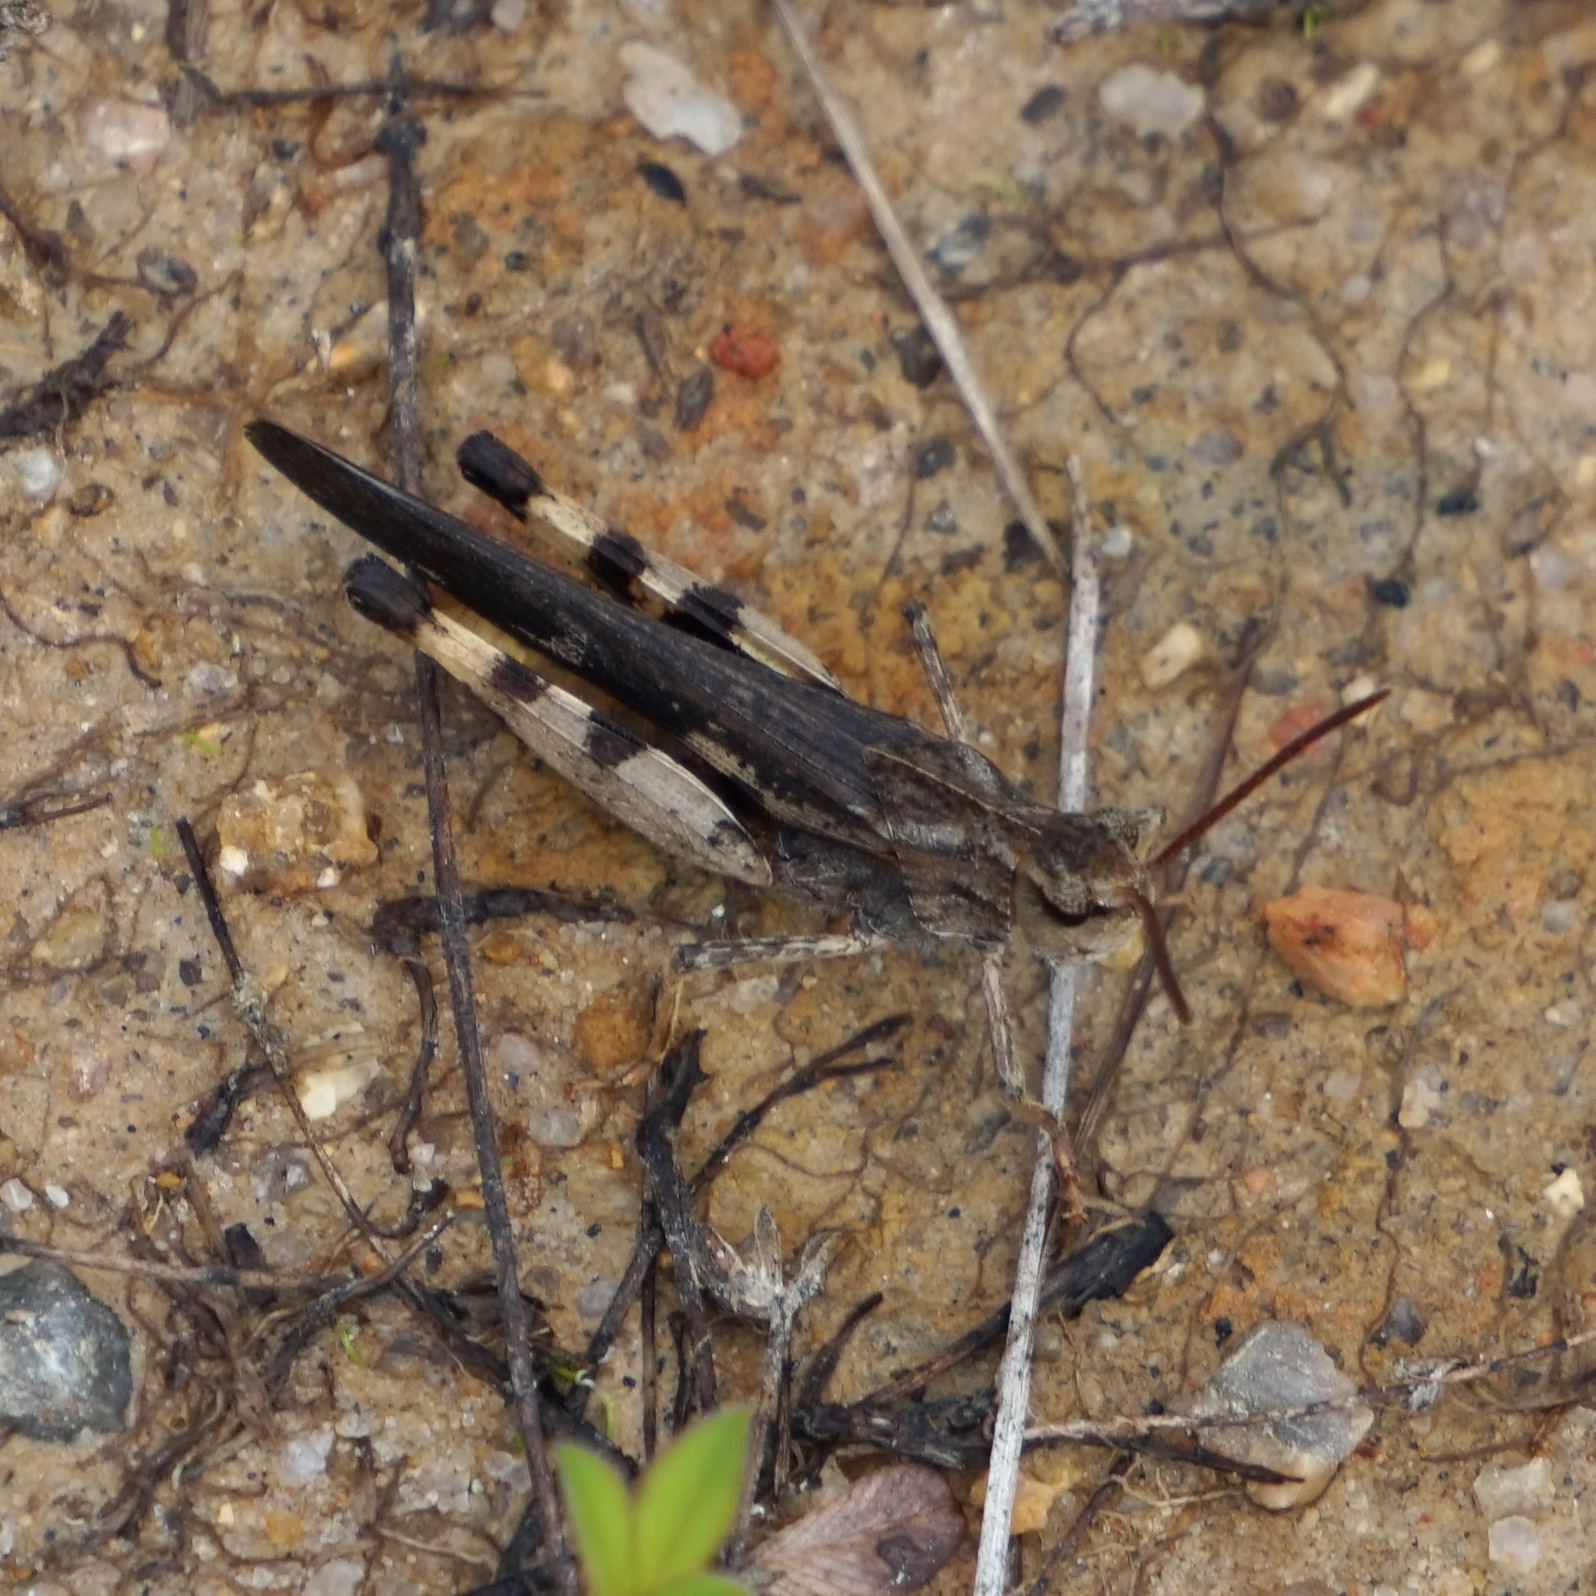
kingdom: Animalia
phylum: Arthropoda
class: Insecta
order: Orthoptera
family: Acrididae
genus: Chortophaga
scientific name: Chortophaga viridifasciata
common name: Green-striped grasshopper
